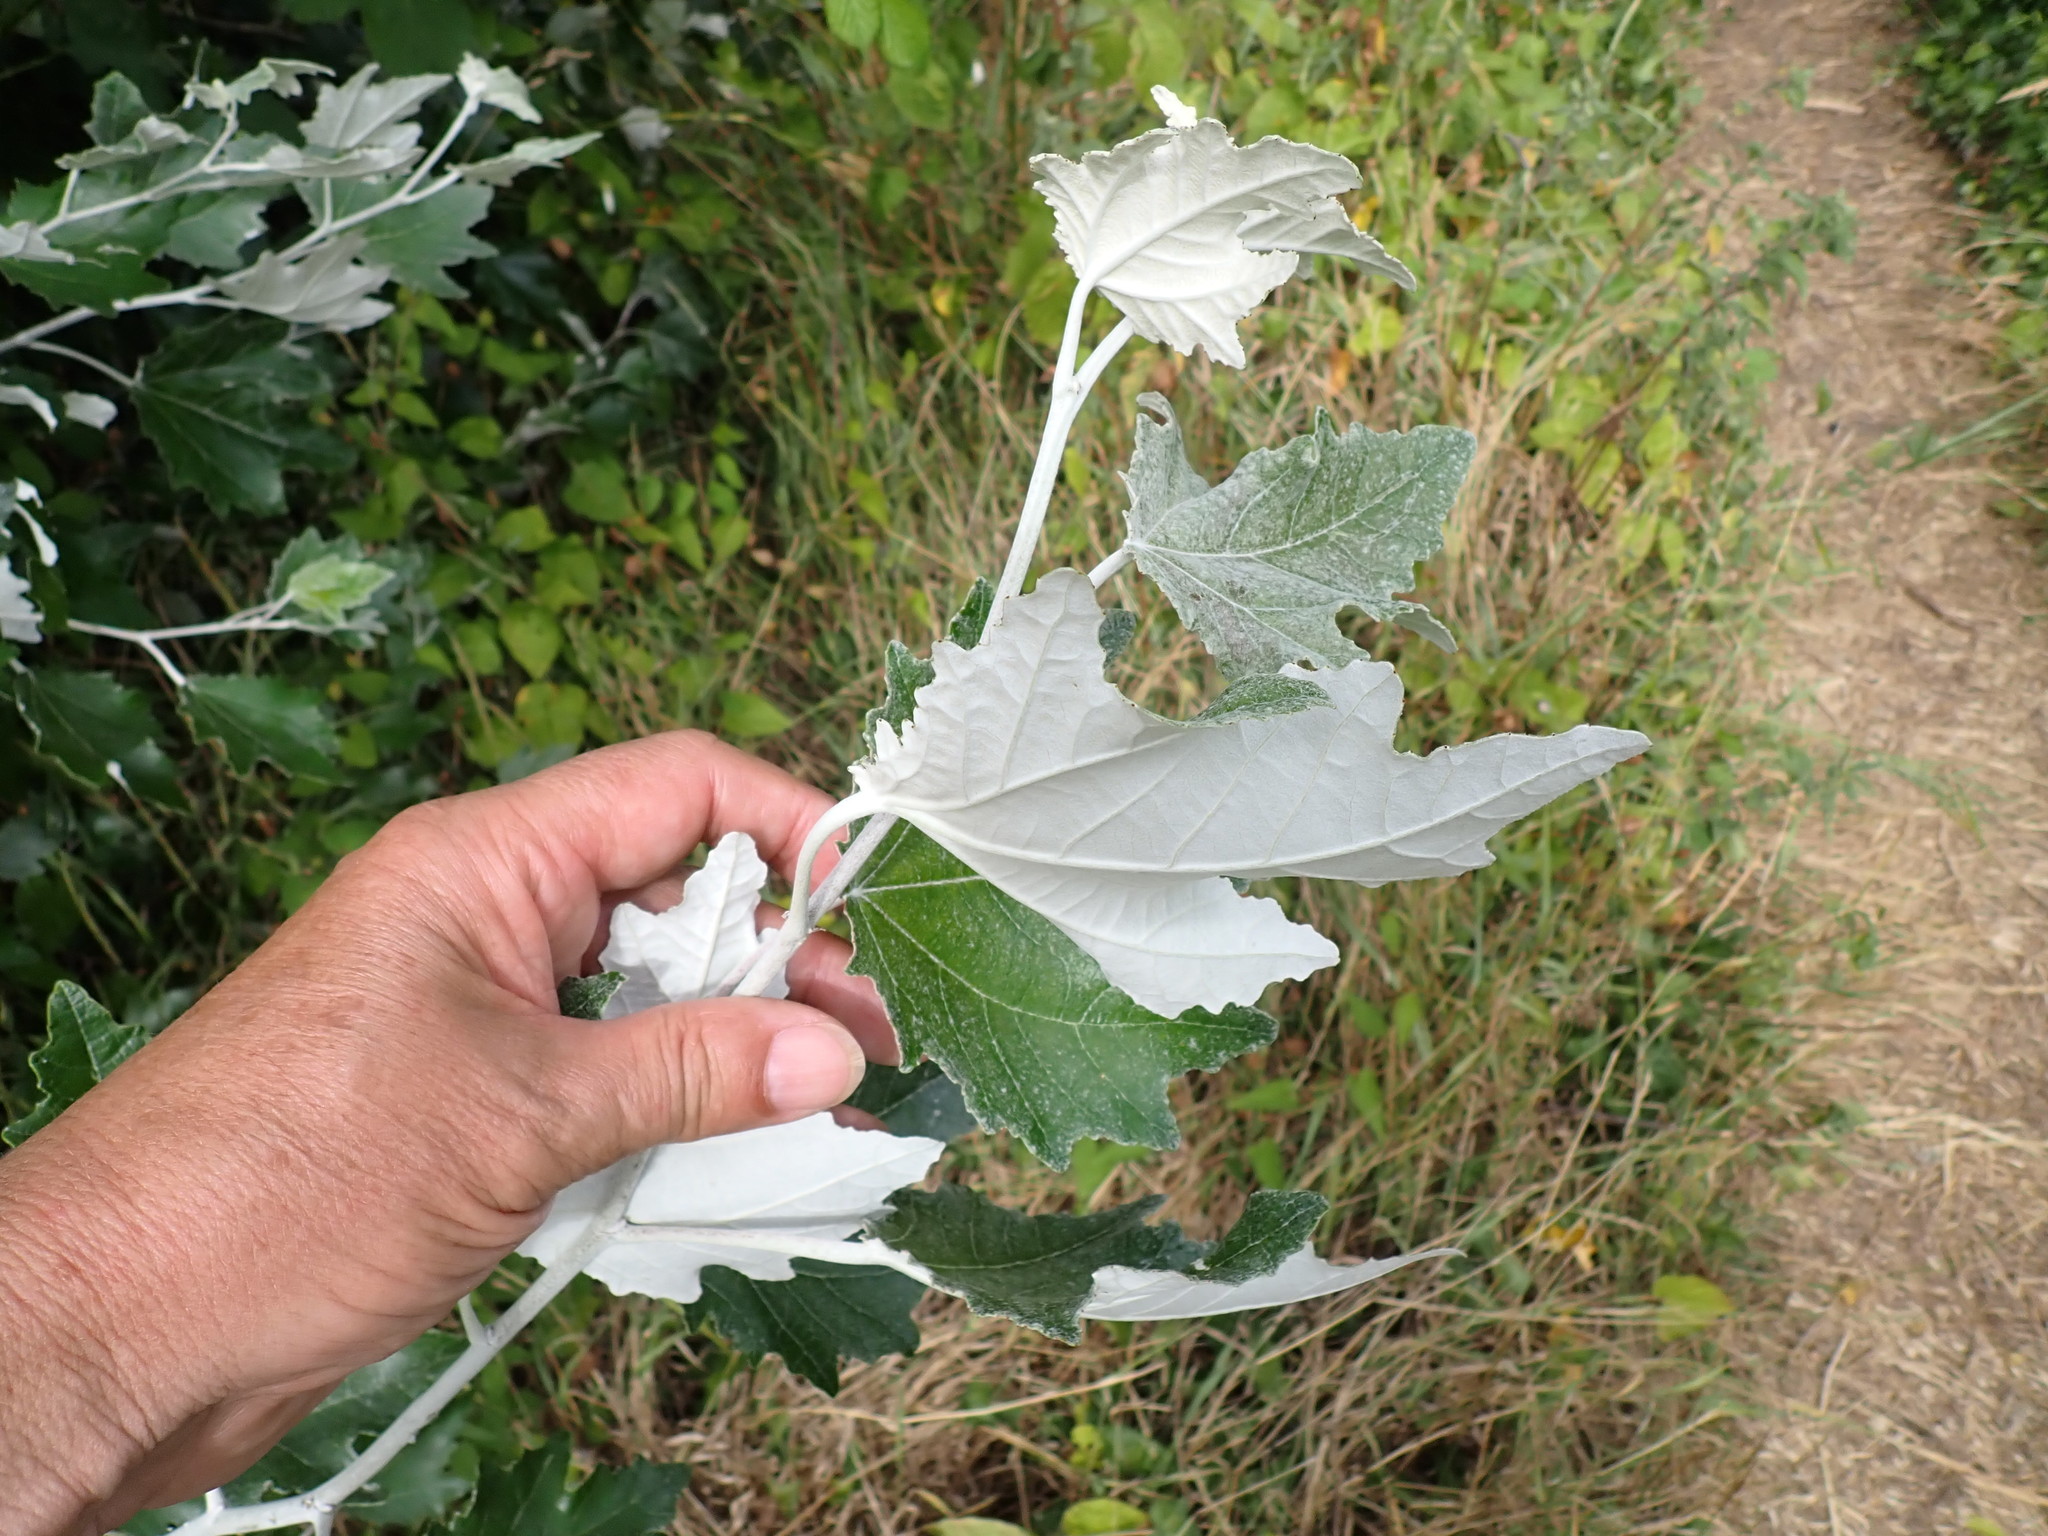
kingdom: Plantae
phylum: Tracheophyta
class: Magnoliopsida
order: Malpighiales
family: Salicaceae
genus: Populus
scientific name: Populus alba
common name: White poplar
